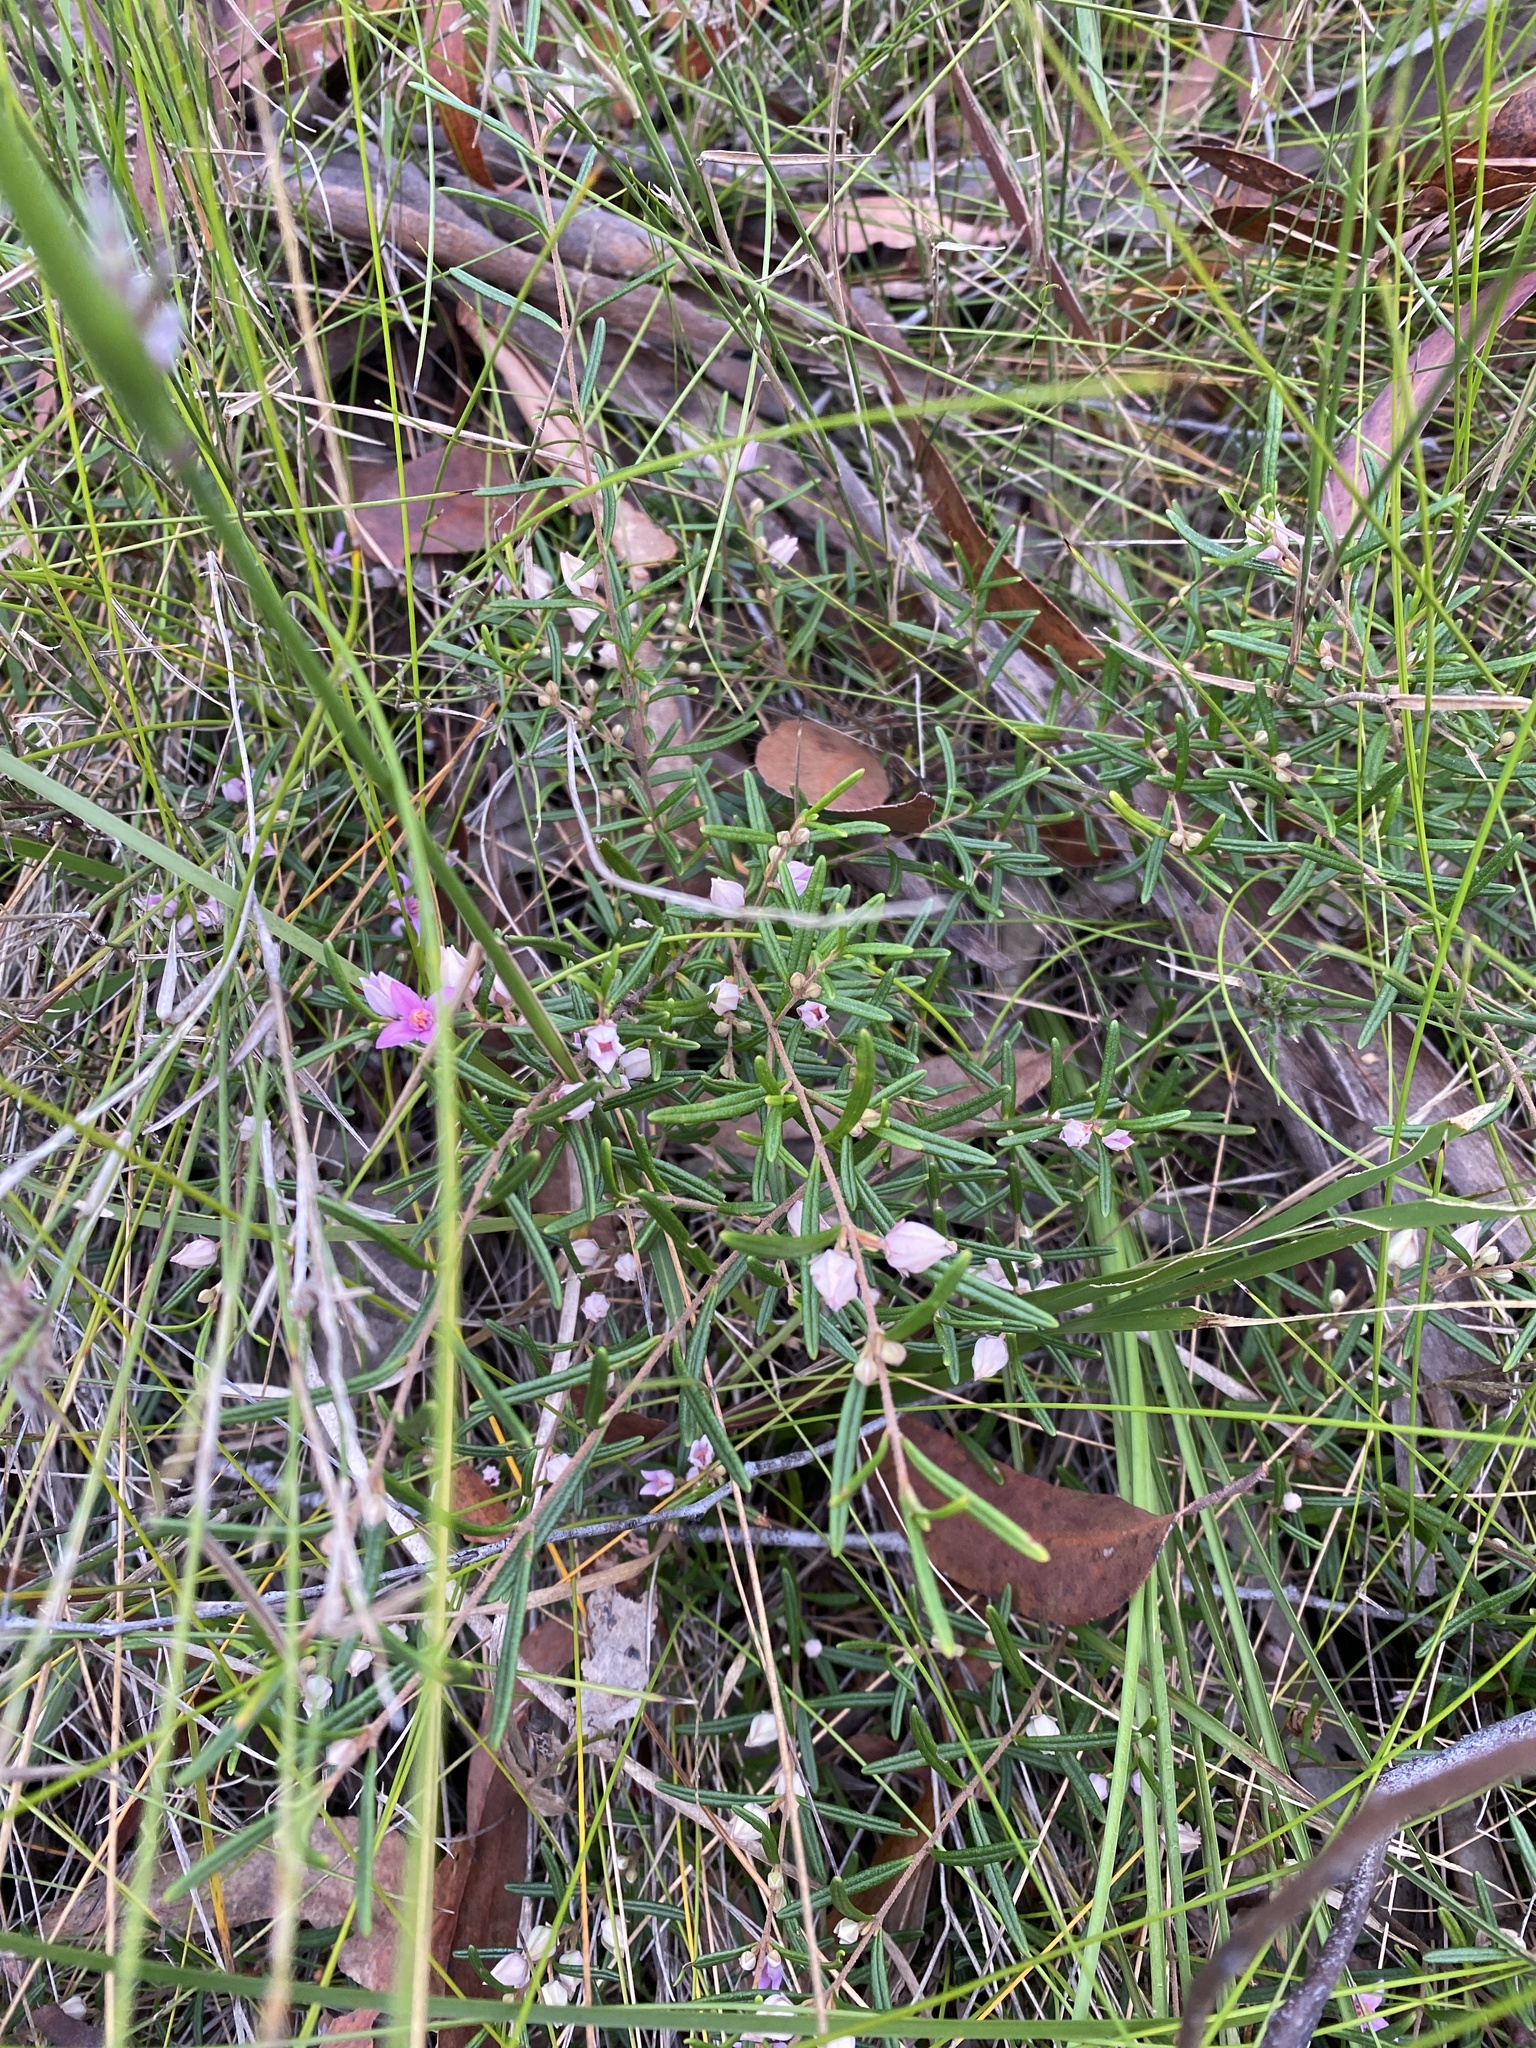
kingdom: Plantae
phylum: Tracheophyta
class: Magnoliopsida
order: Sapindales
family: Rutaceae
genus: Boronia
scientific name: Boronia rosmarinifolia
